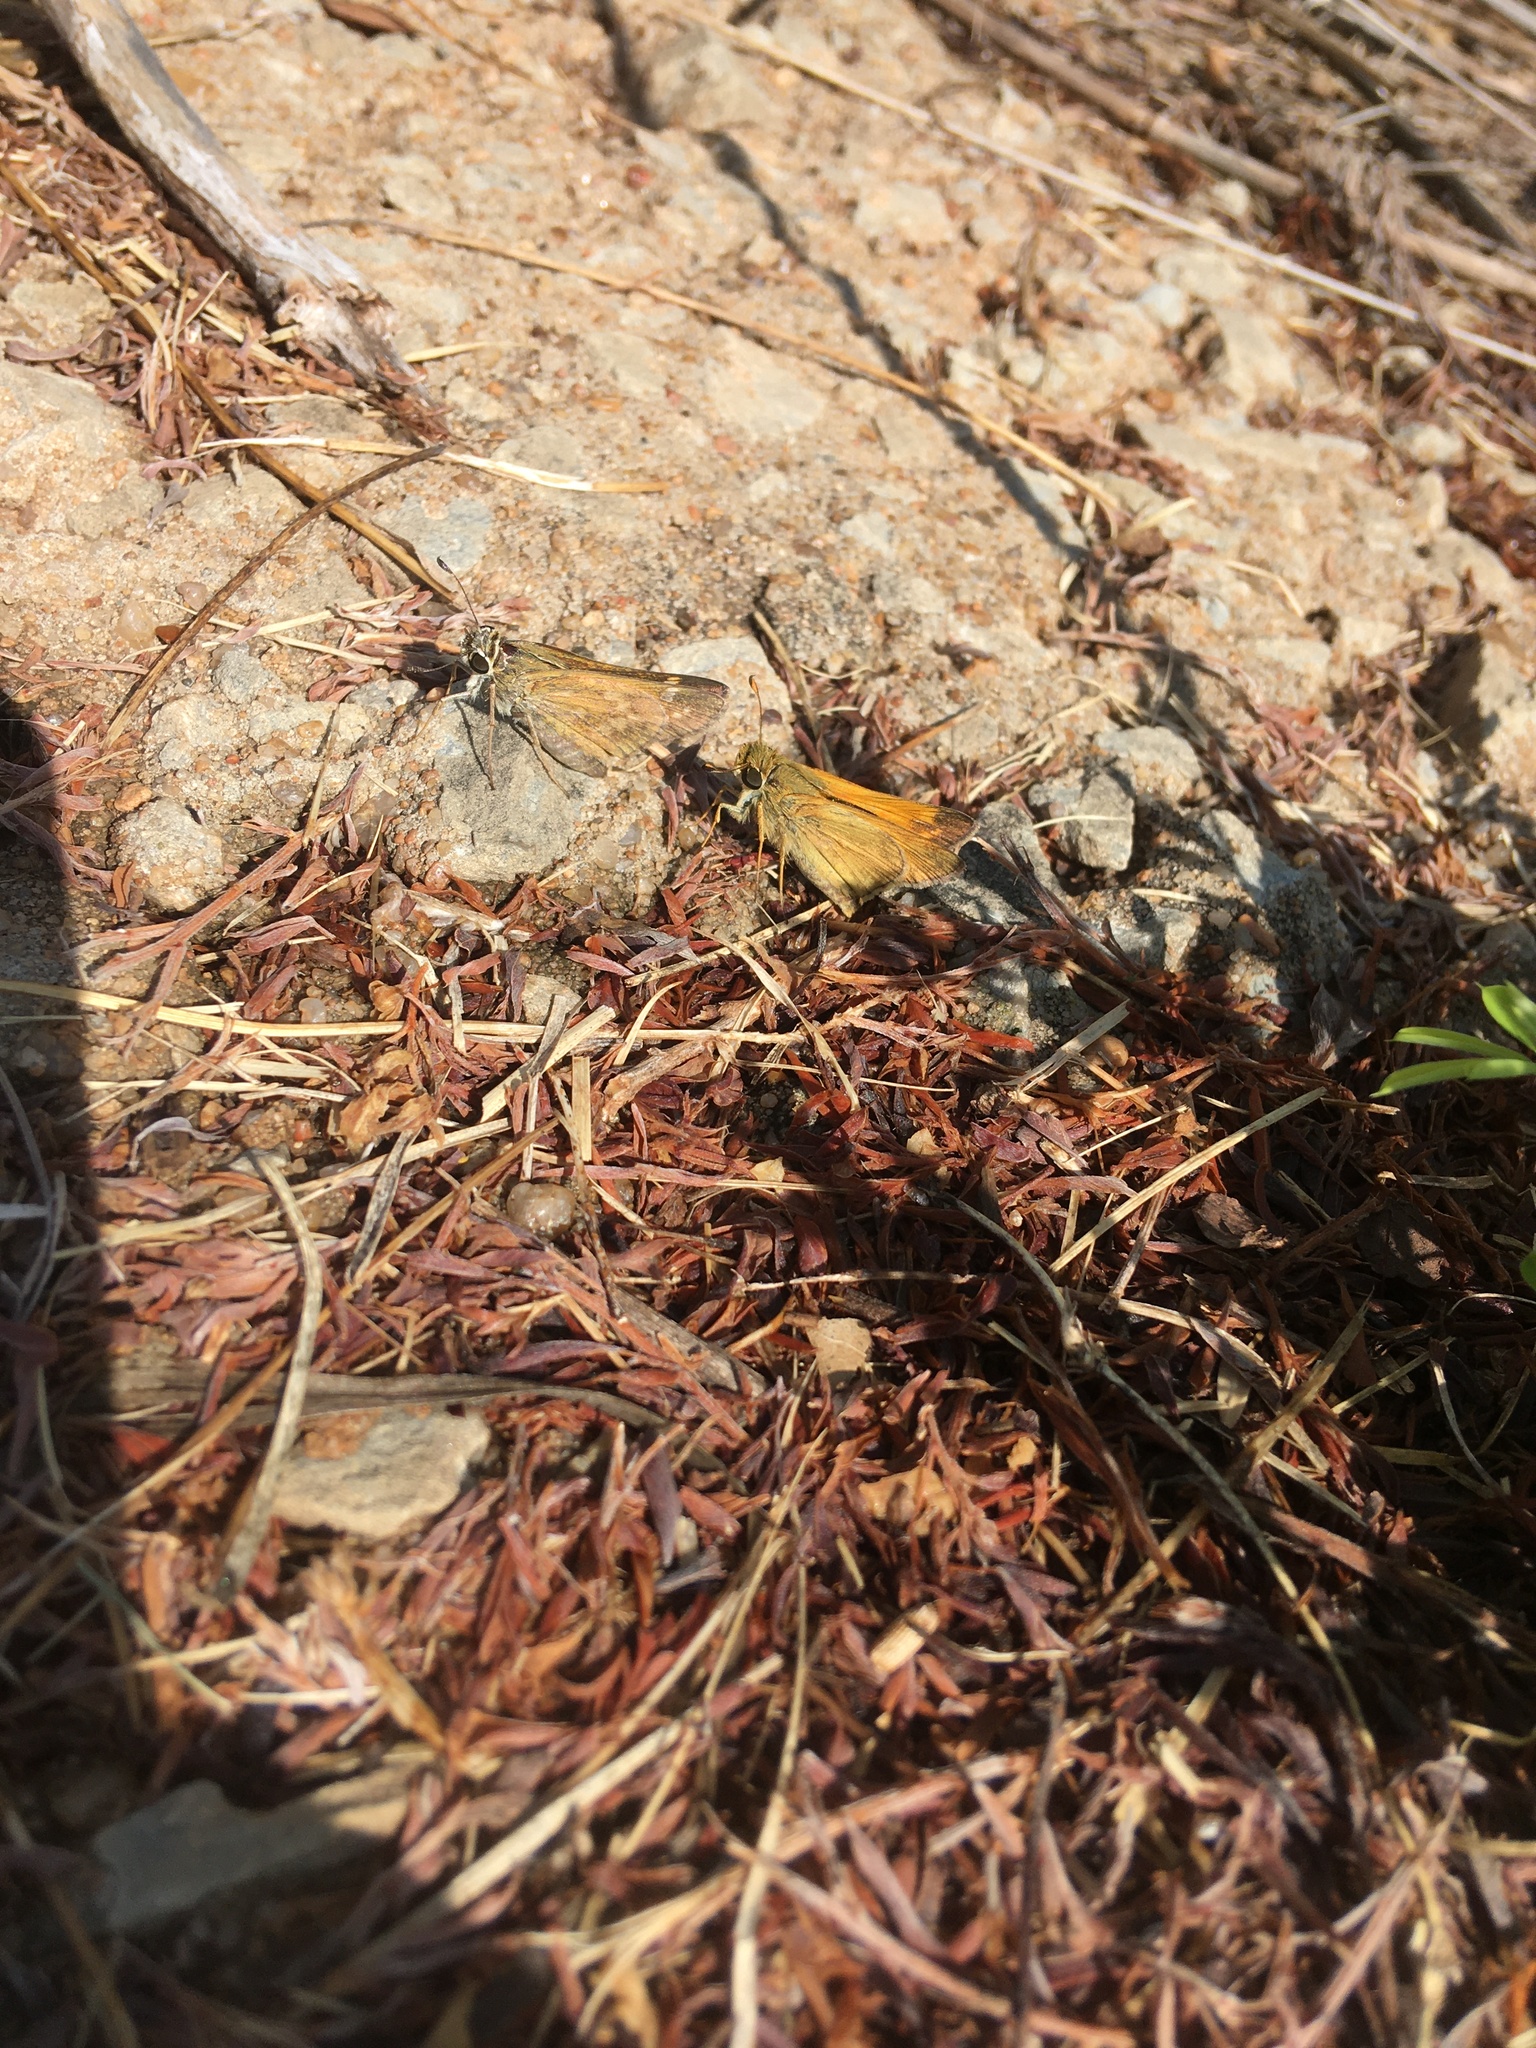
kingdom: Animalia
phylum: Arthropoda
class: Insecta
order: Lepidoptera
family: Hesperiidae
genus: Atalopedes
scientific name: Atalopedes
